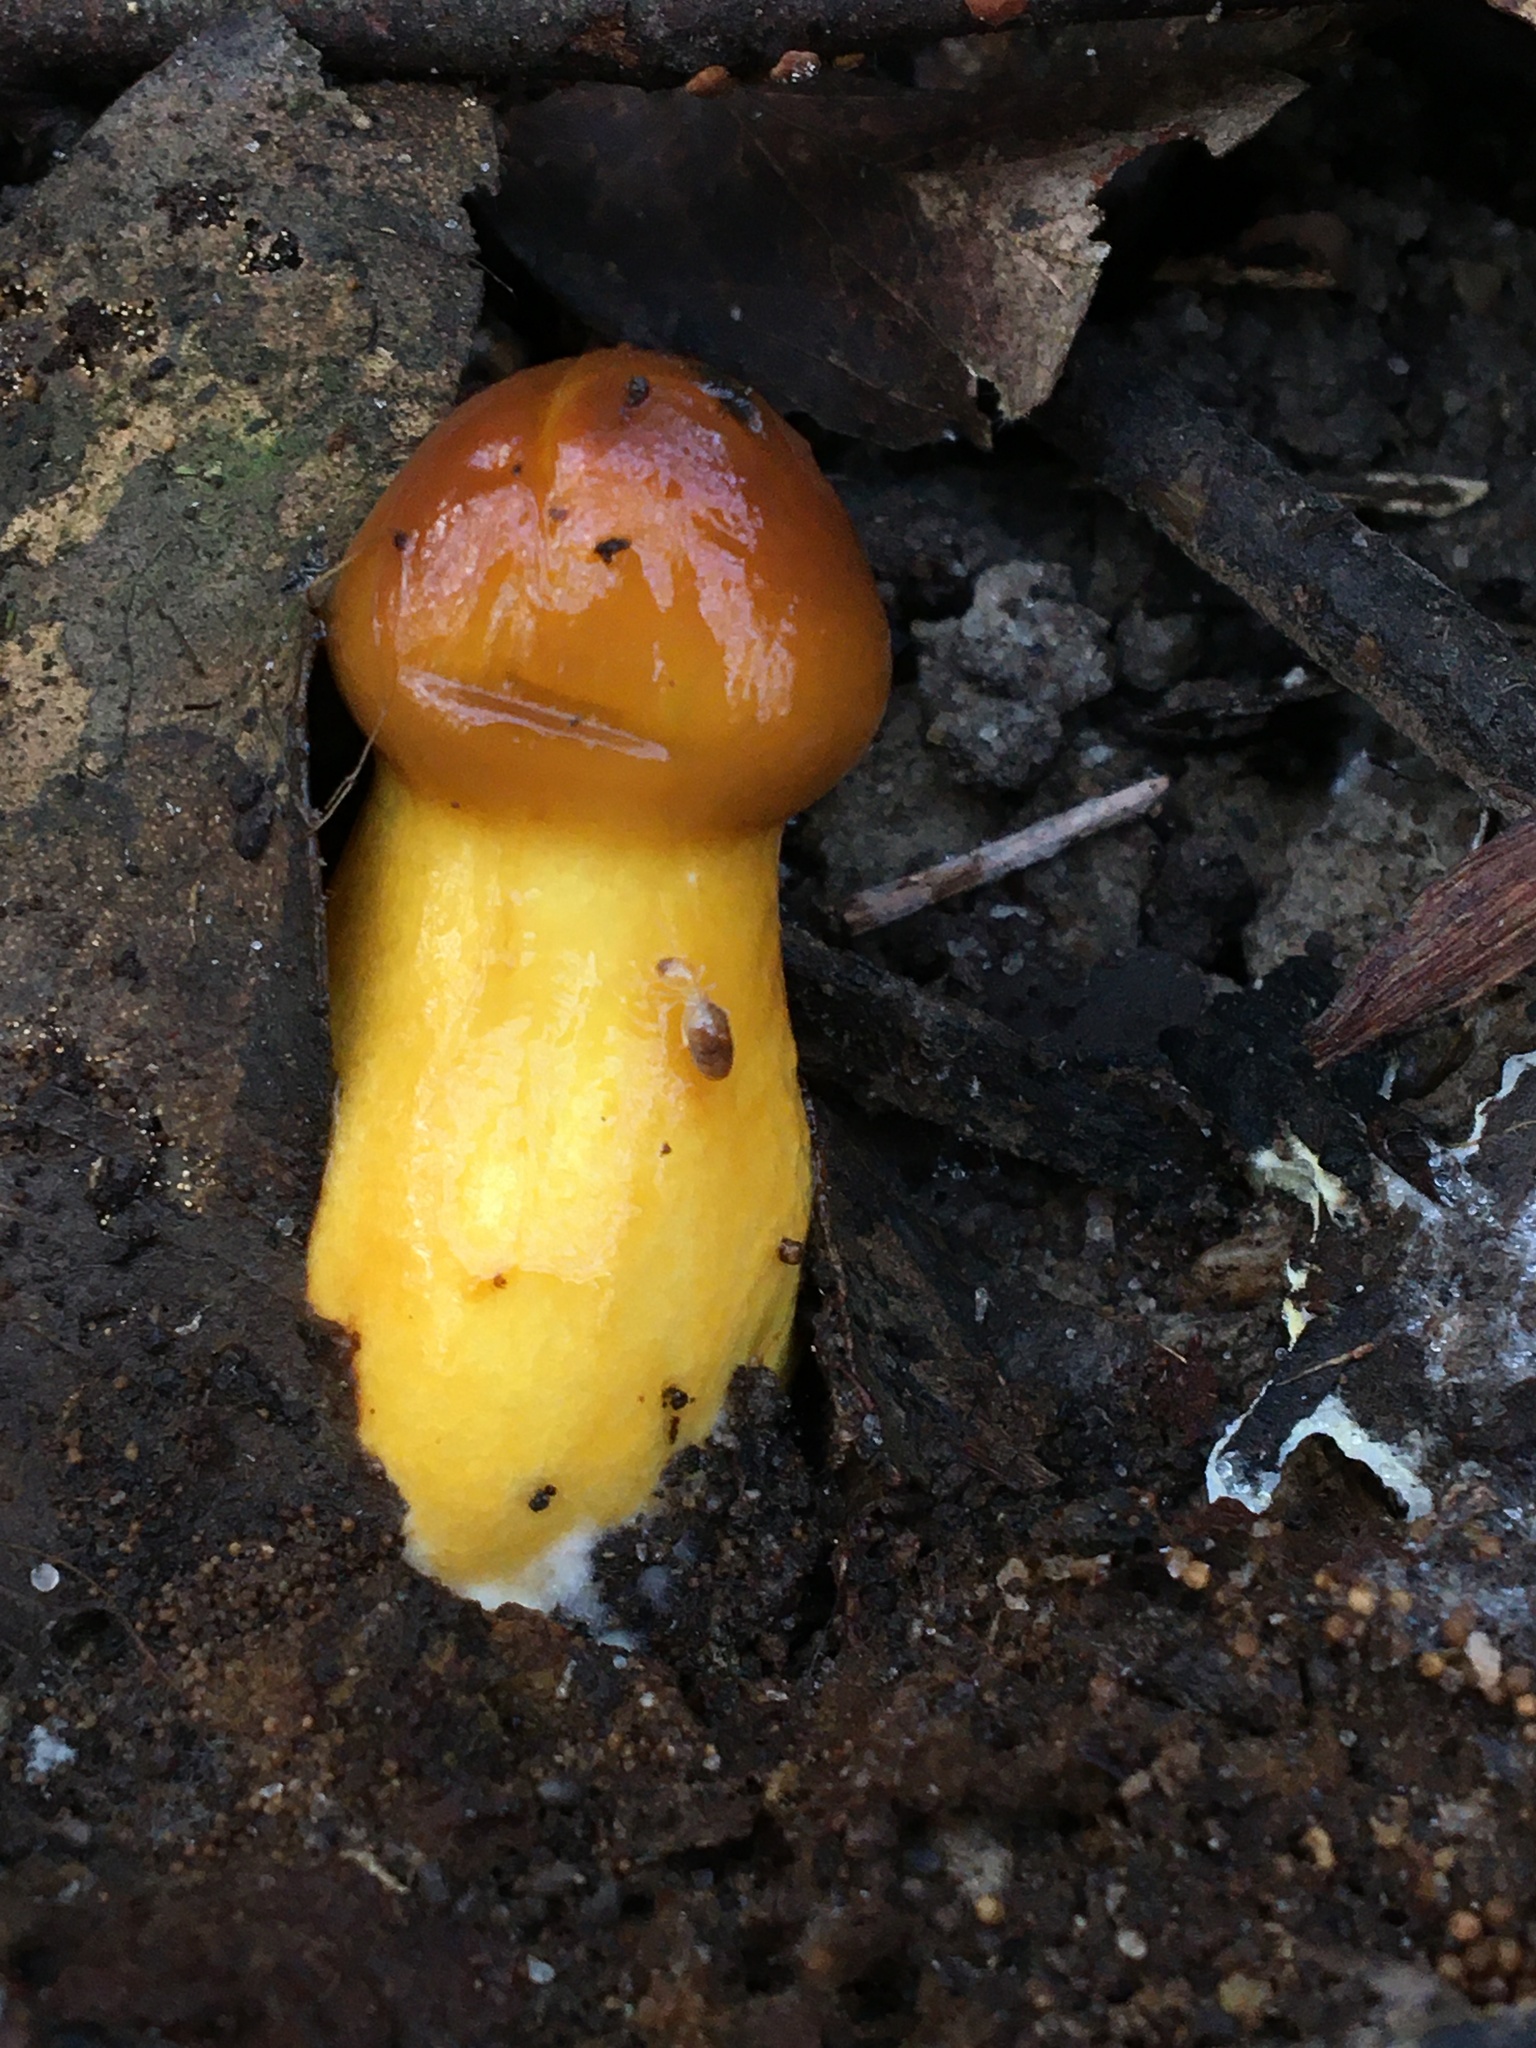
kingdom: Fungi
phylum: Basidiomycota
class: Agaricomycetes
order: Agaricales
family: Cortinariaceae
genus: Cortinarius
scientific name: Cortinarius sinapicolor
